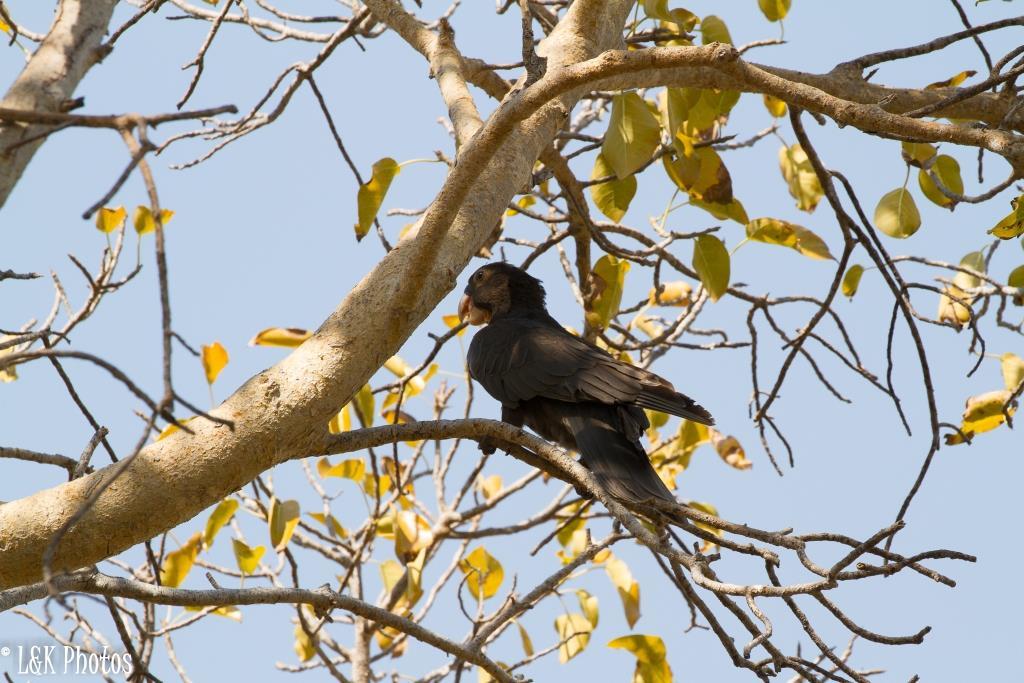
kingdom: Animalia
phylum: Chordata
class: Aves
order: Psittaciformes
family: Psittacidae
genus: Coracopsis
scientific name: Coracopsis vasa
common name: Greater vasa parrot
